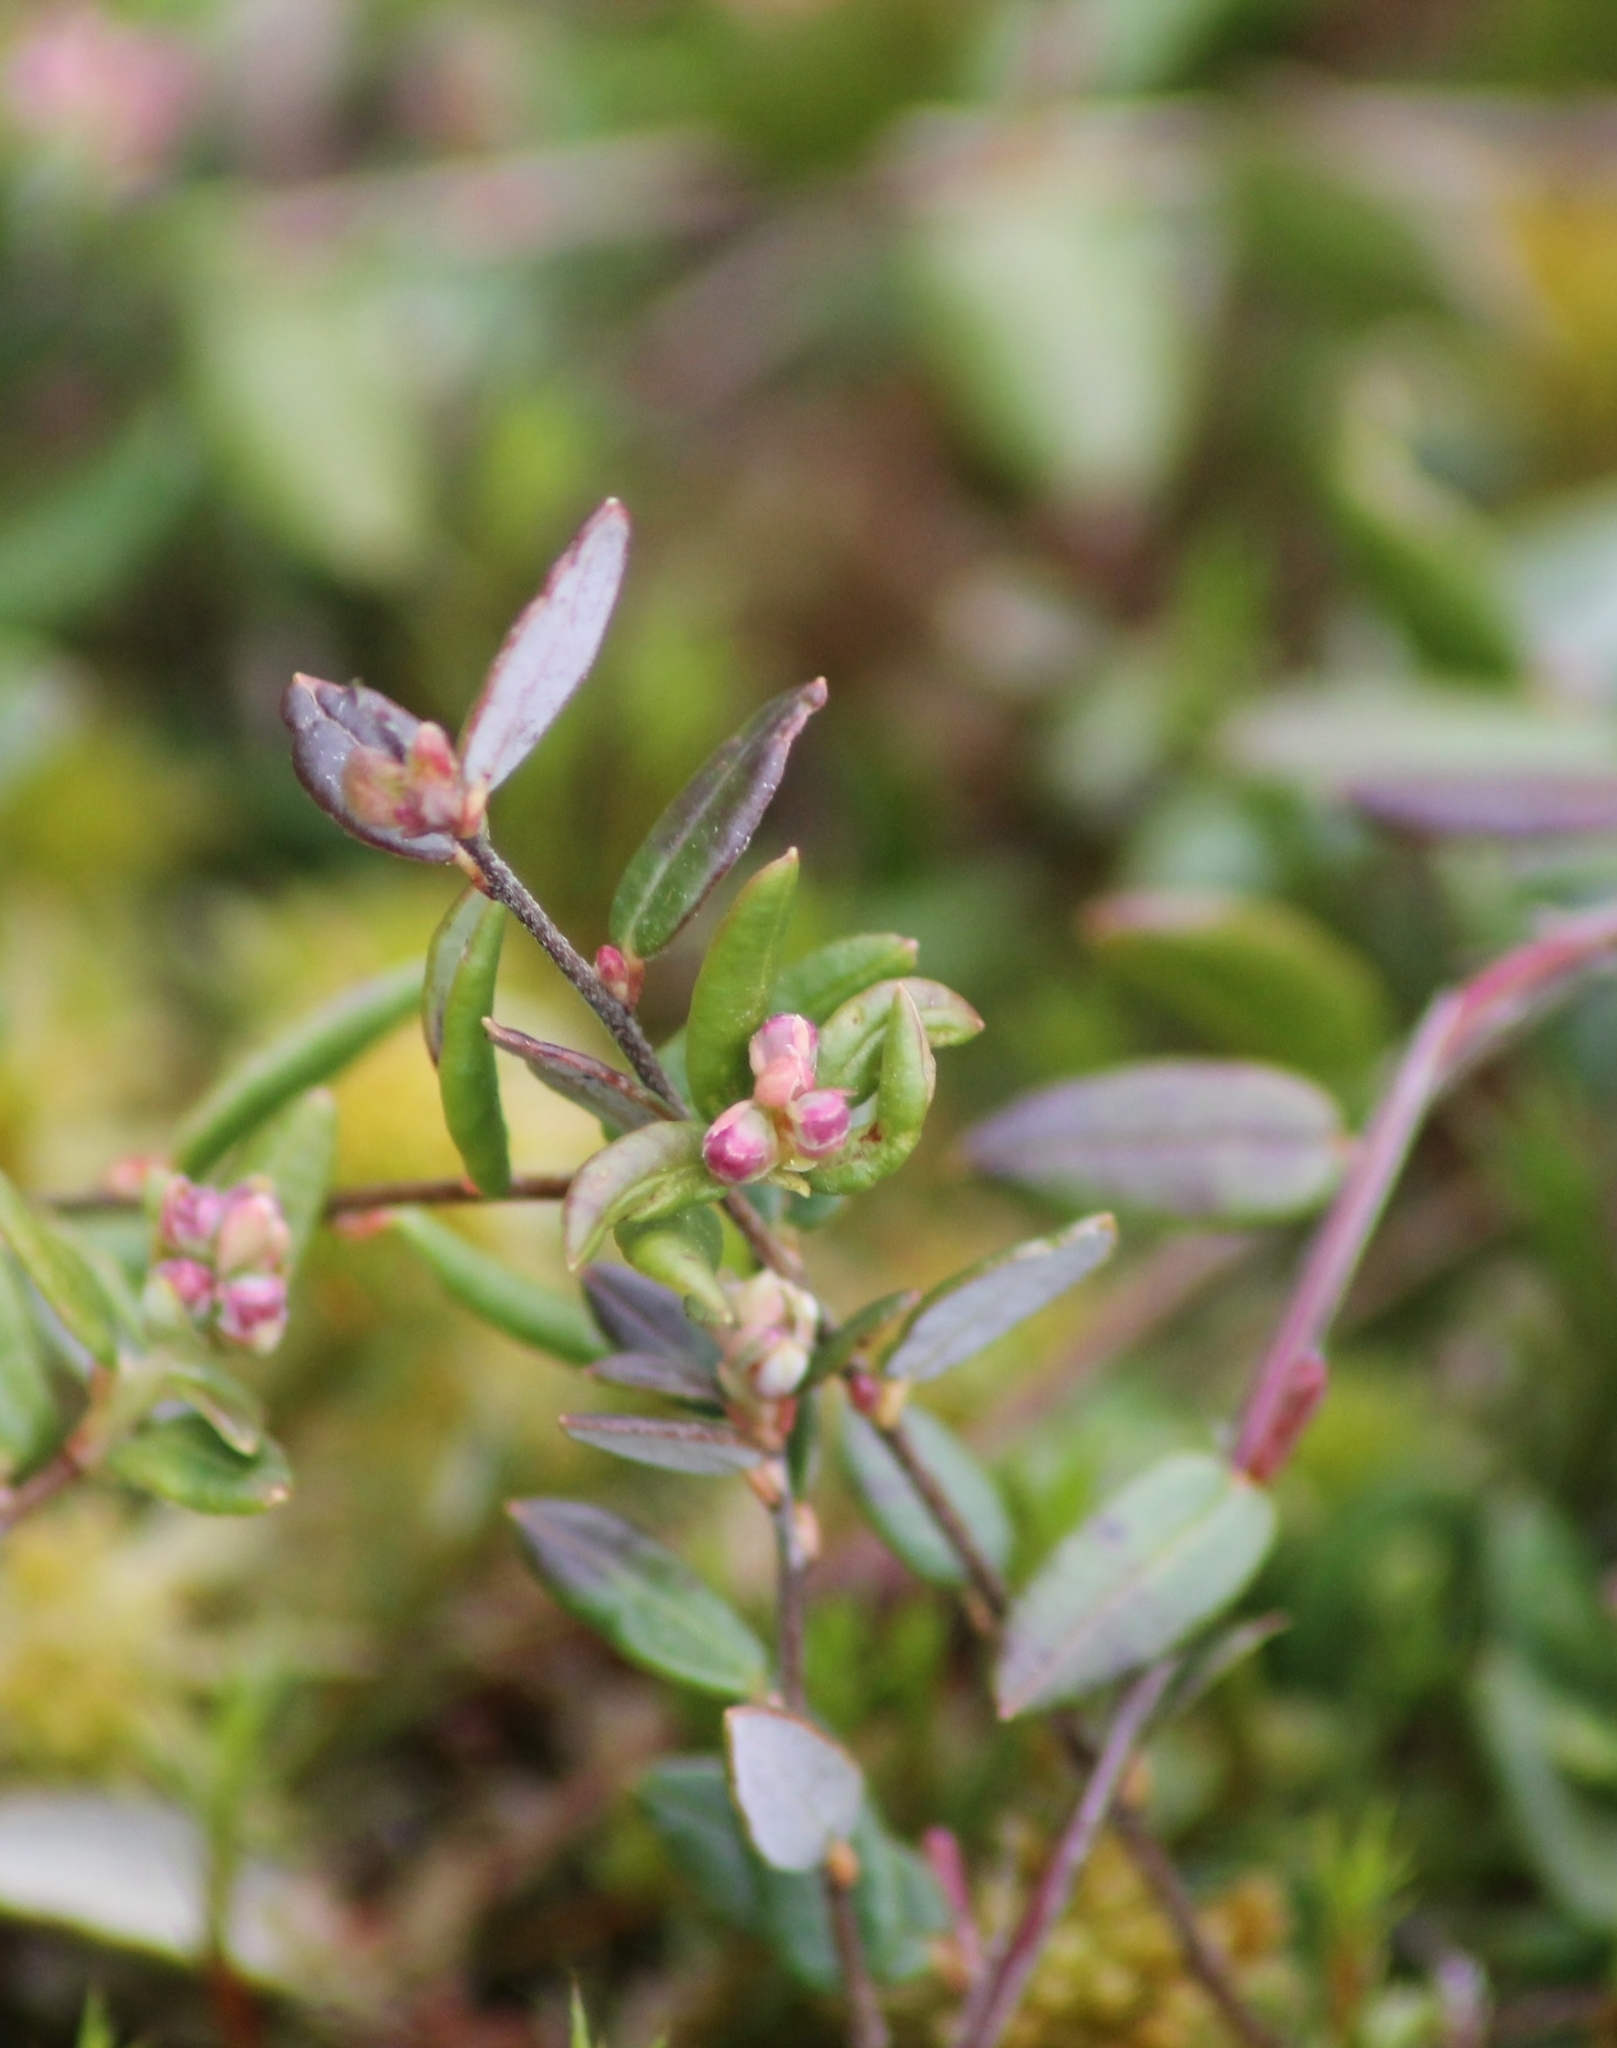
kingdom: Plantae
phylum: Tracheophyta
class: Magnoliopsida
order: Ericales
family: Ericaceae
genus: Vaccinium
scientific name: Vaccinium oxycoccos
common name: Cranberry
